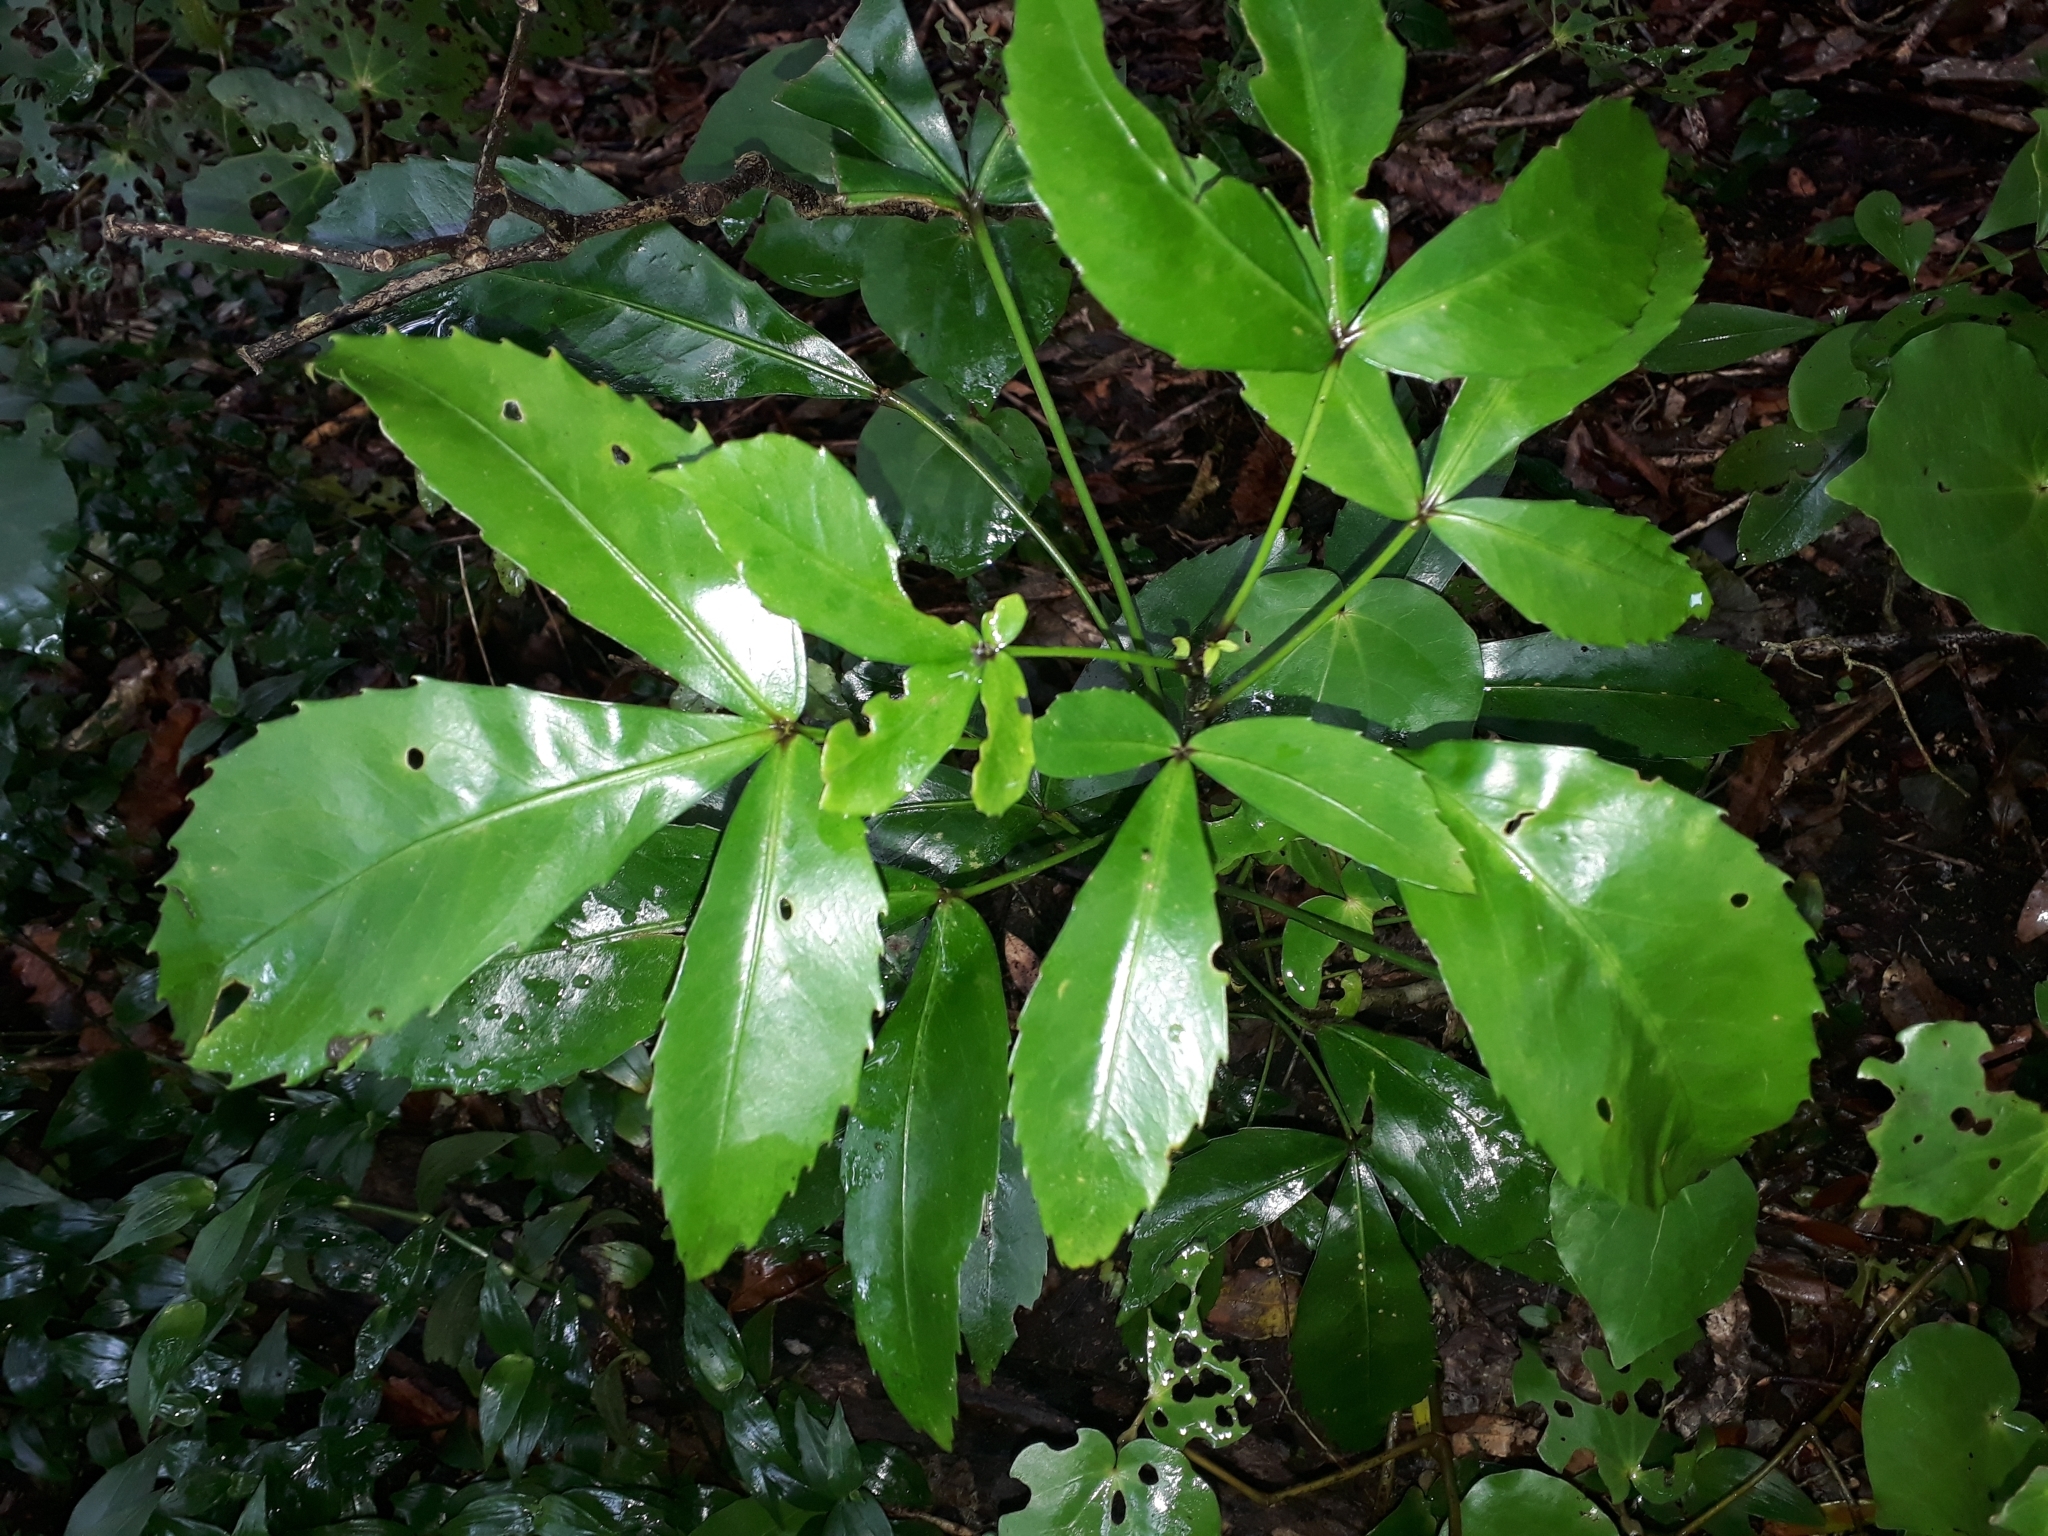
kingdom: Plantae
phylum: Tracheophyta
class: Magnoliopsida
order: Apiales
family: Araliaceae
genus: Pseudopanax
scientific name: Pseudopanax lessonii
